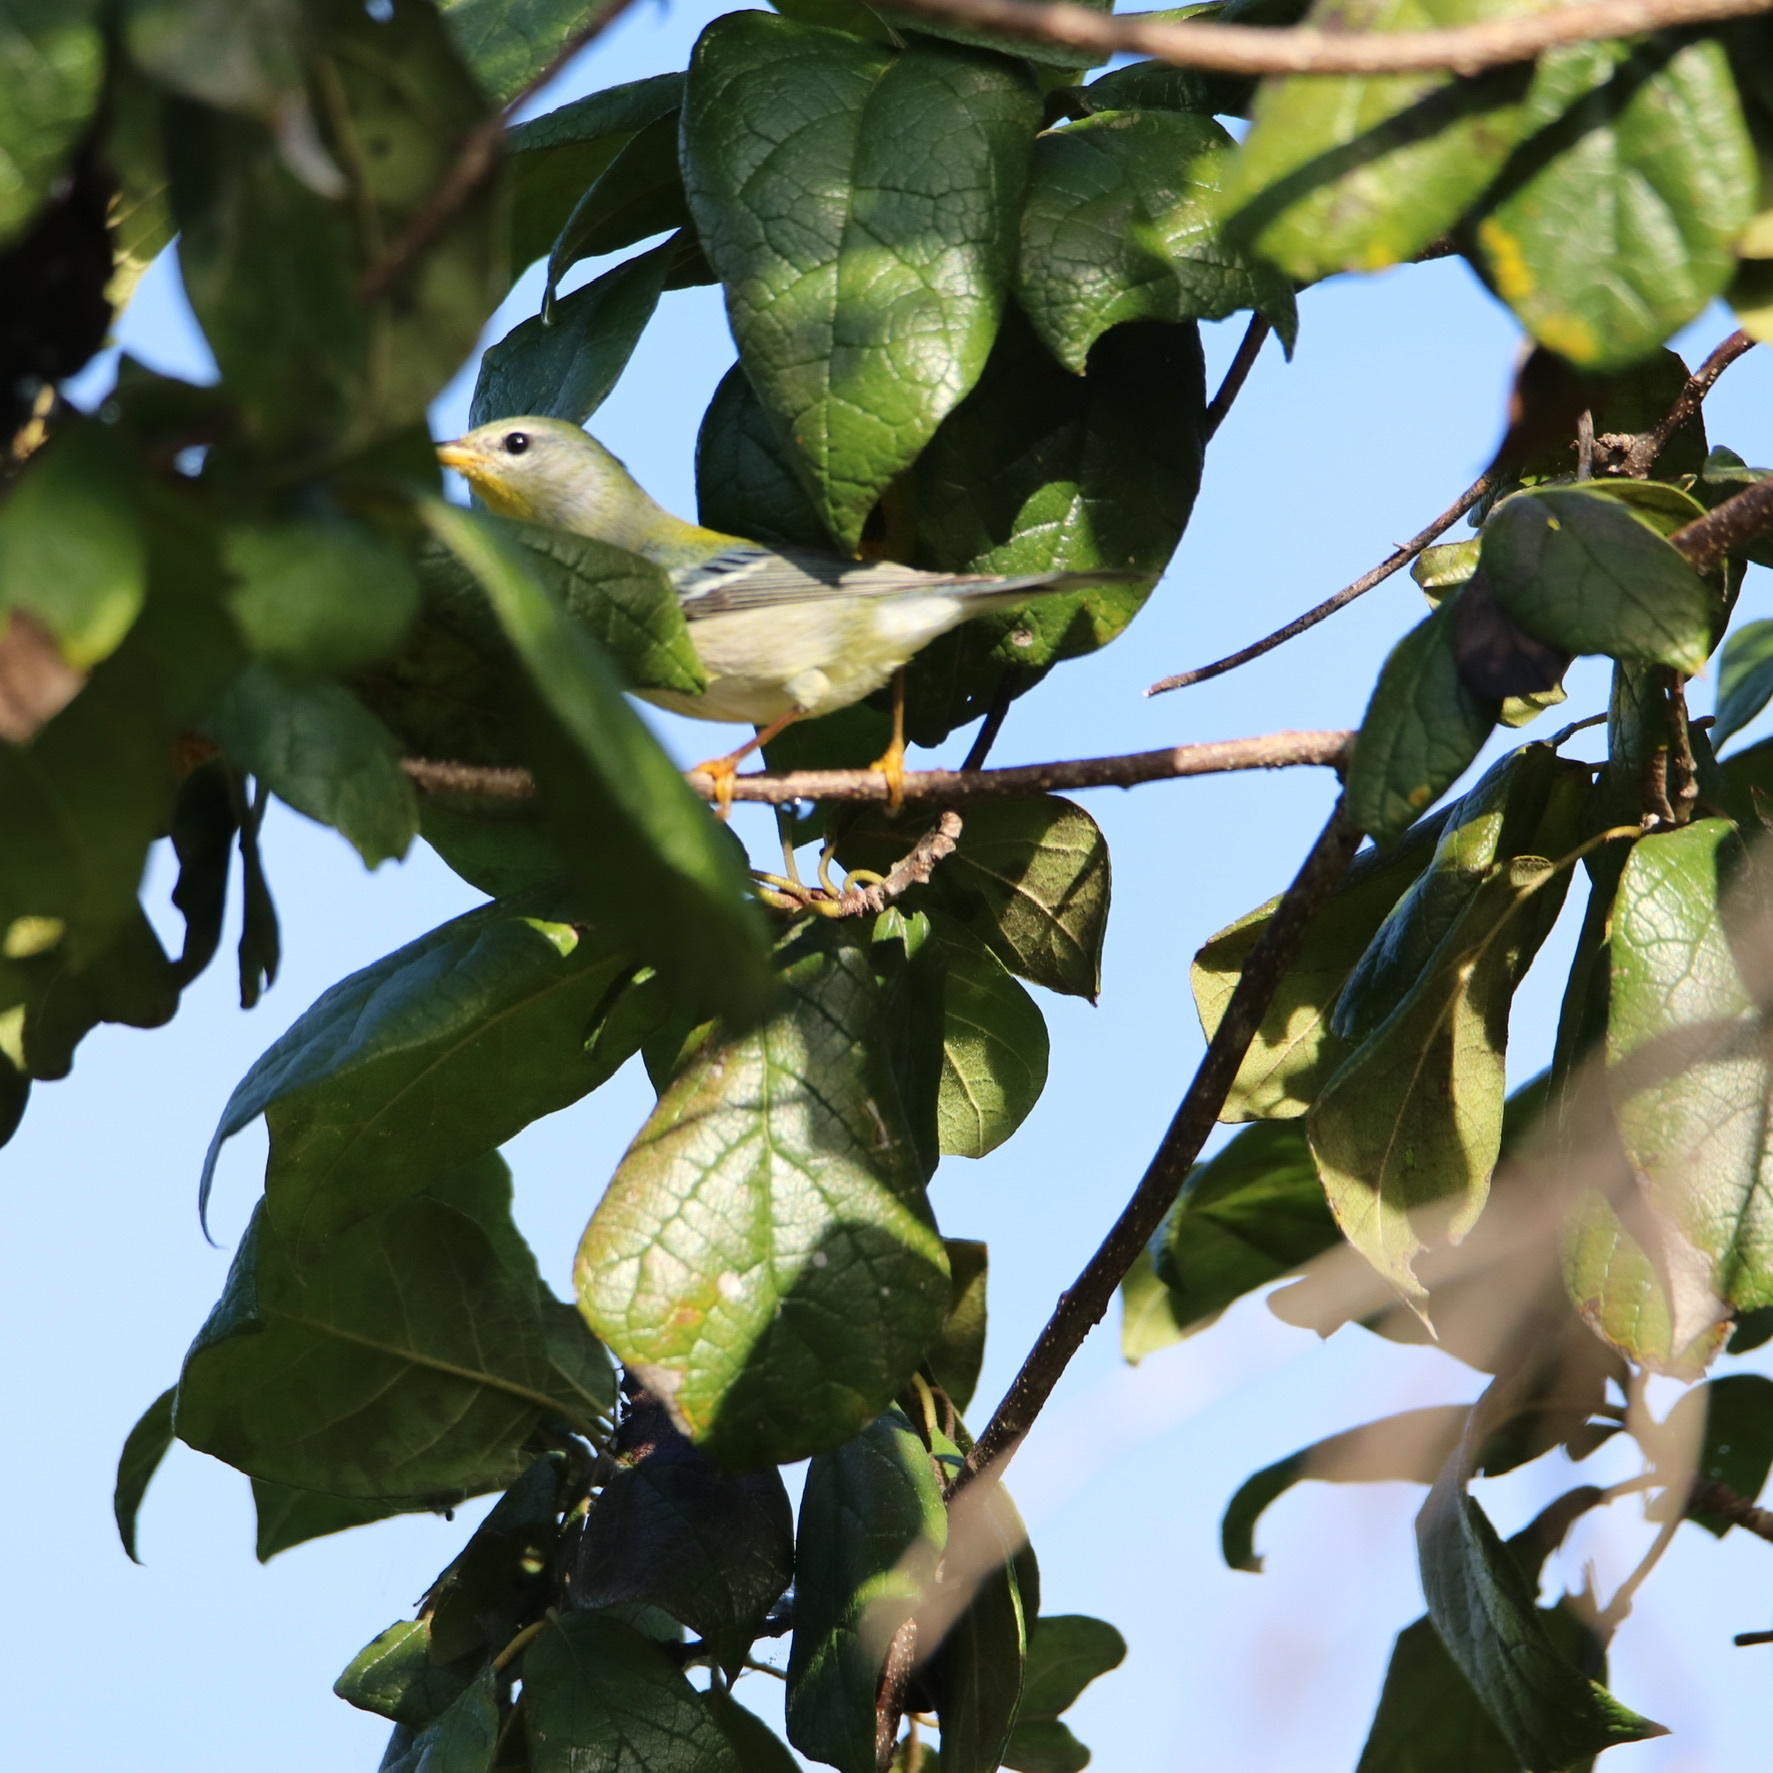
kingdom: Animalia
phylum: Chordata
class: Aves
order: Passeriformes
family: Parulidae
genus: Setophaga
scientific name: Setophaga americana
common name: Northern parula
